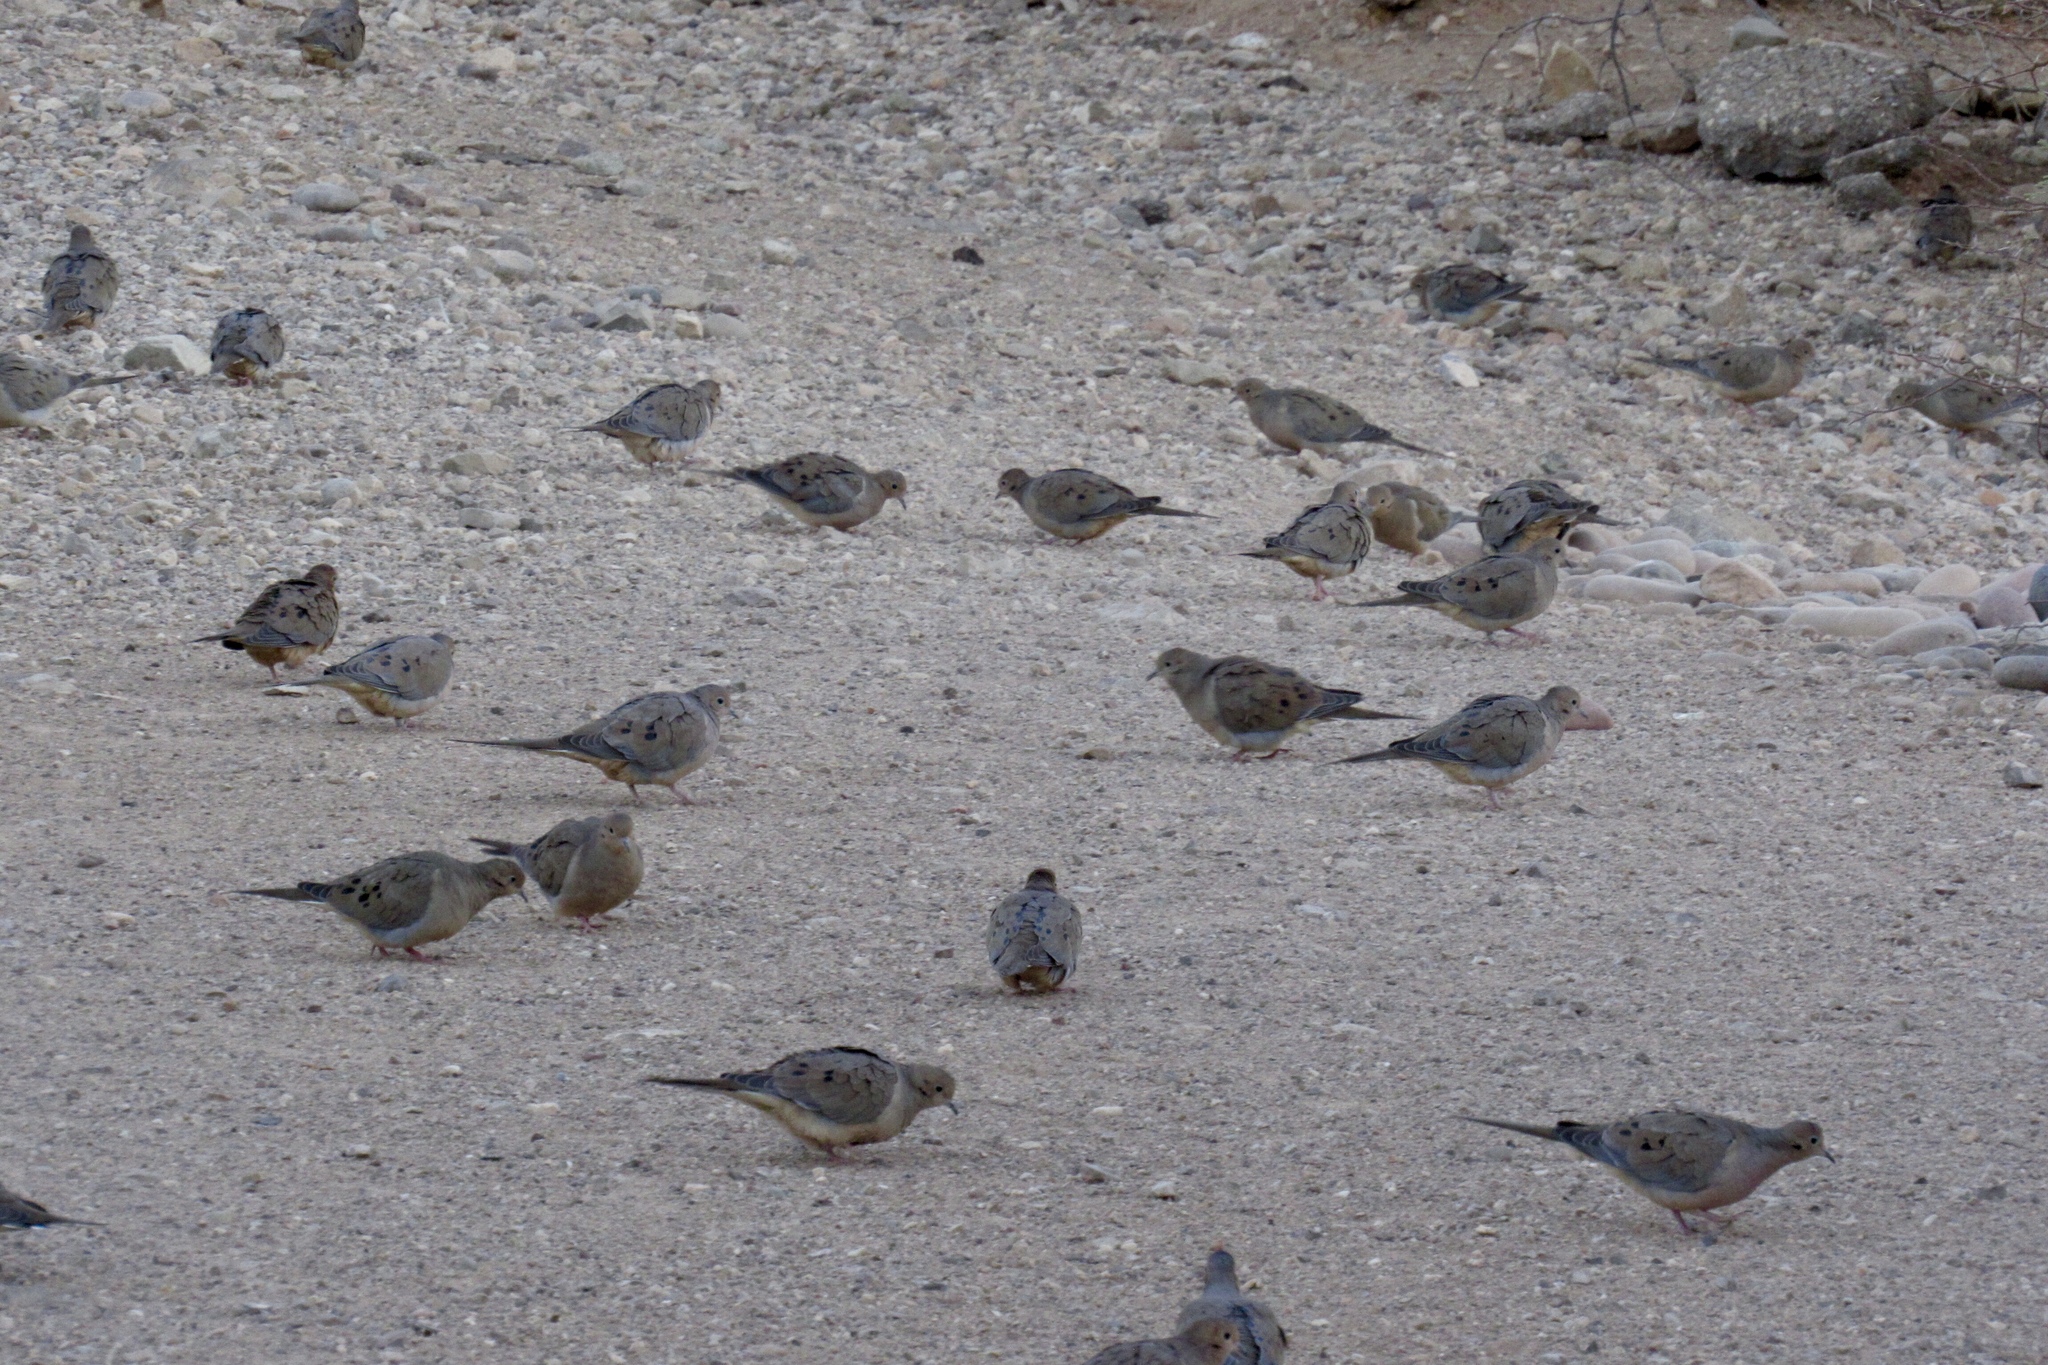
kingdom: Animalia
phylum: Chordata
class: Aves
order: Columbiformes
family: Columbidae
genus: Zenaida
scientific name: Zenaida macroura
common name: Mourning dove
